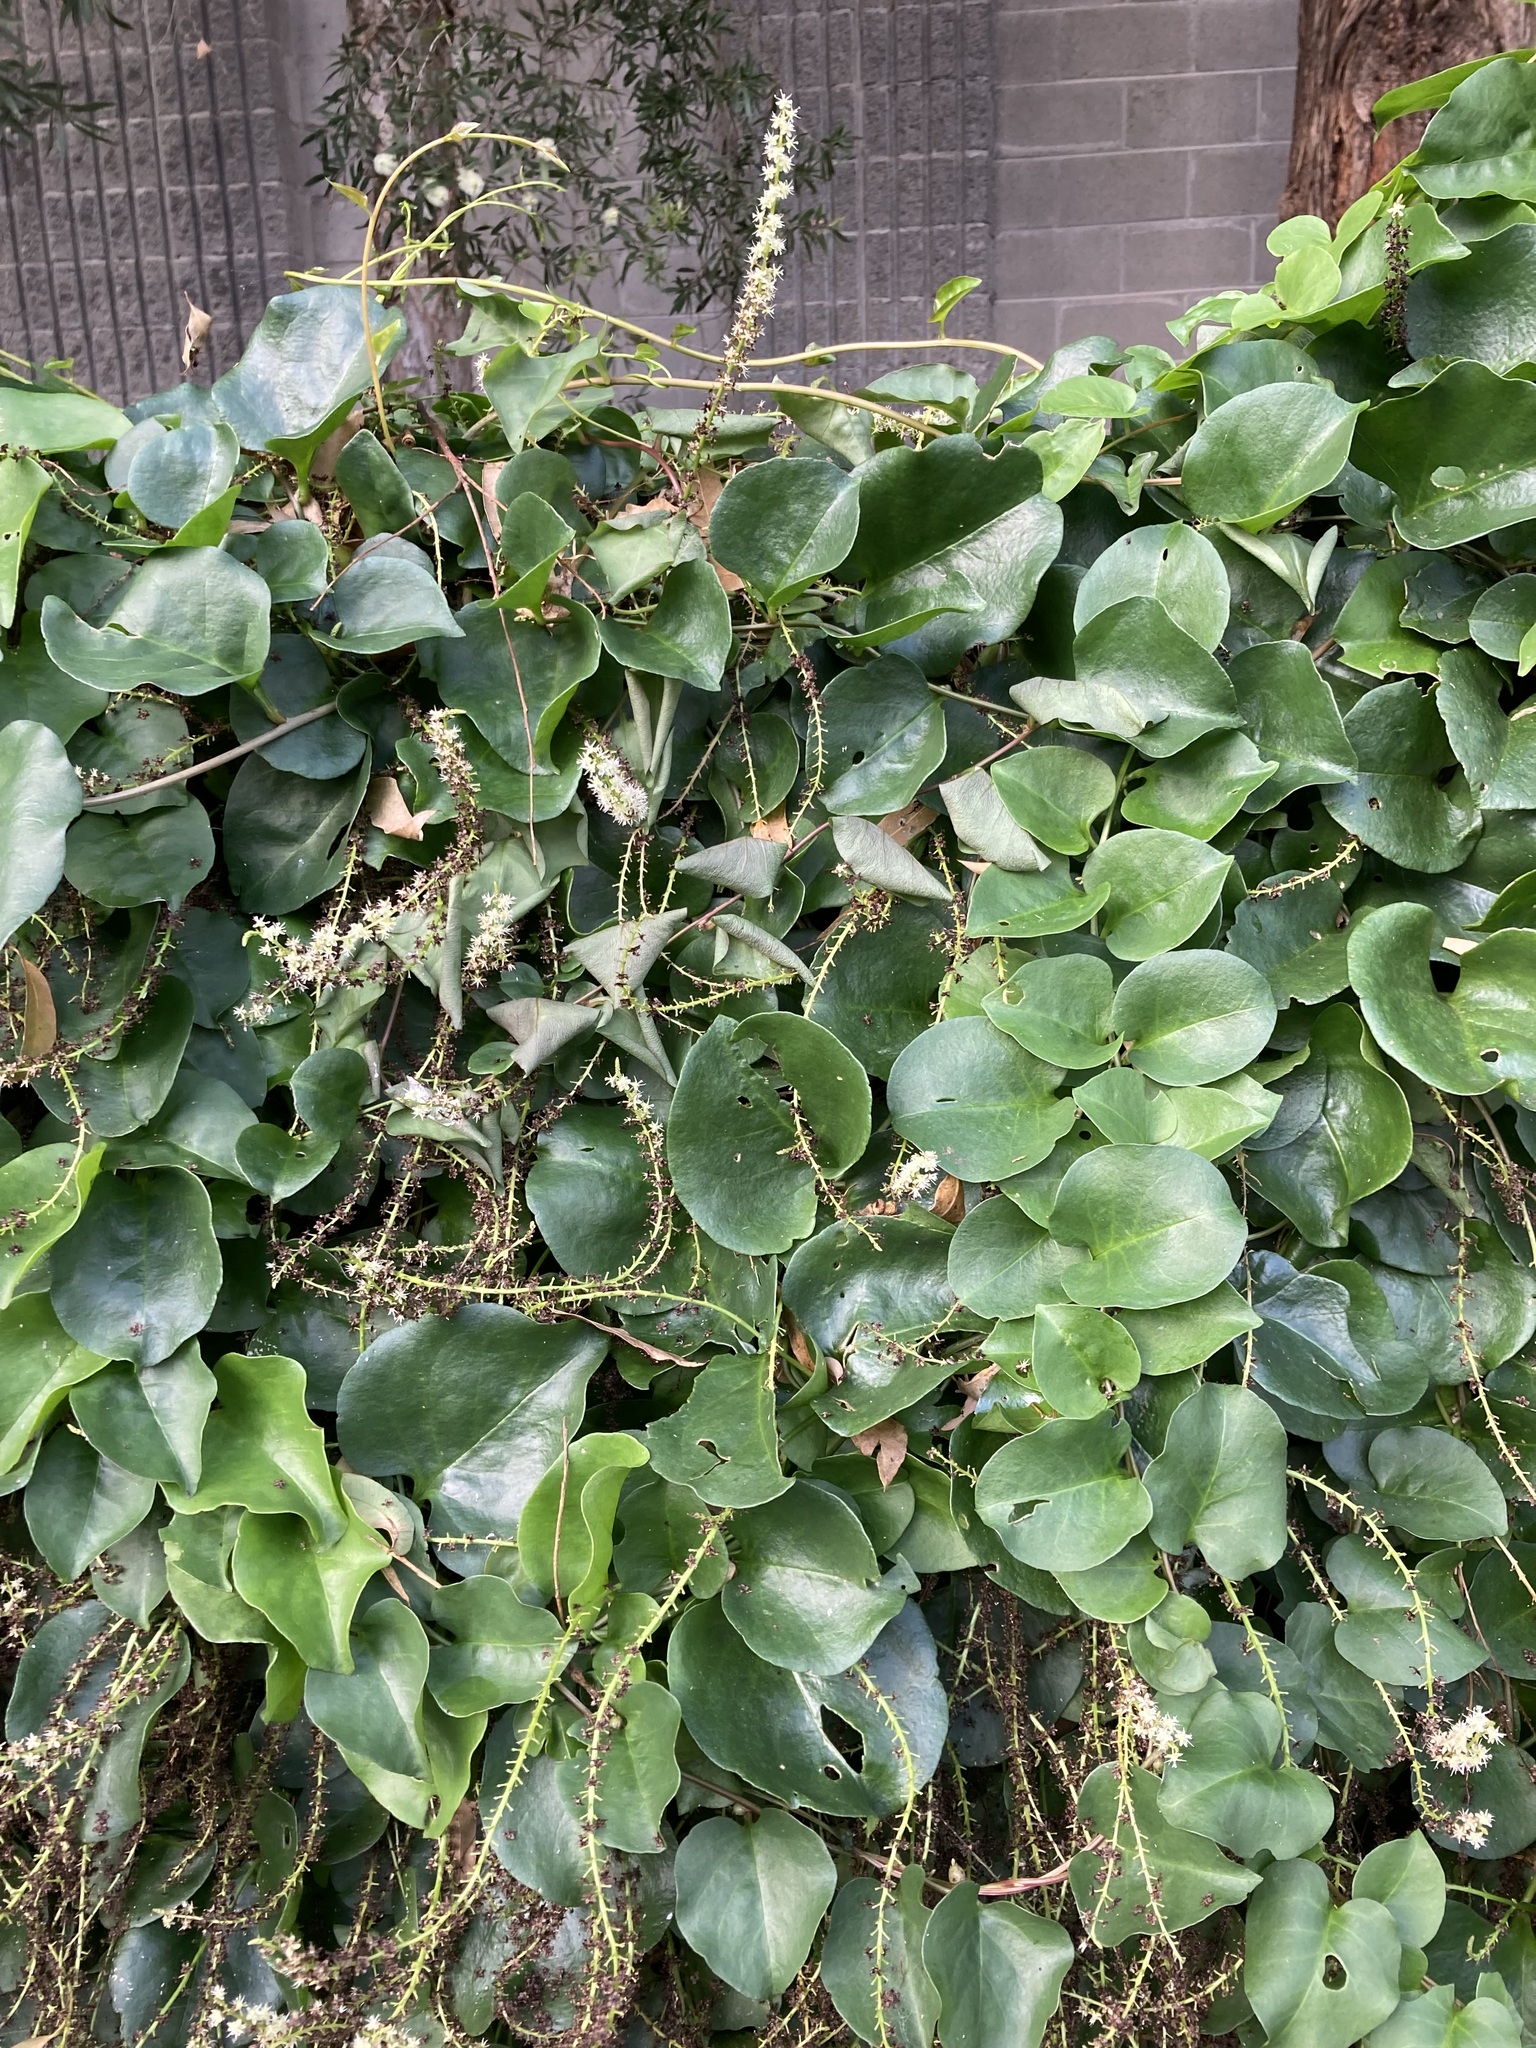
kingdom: Plantae
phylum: Tracheophyta
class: Magnoliopsida
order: Caryophyllales
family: Basellaceae
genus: Anredera
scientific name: Anredera cordifolia
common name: Heartleaf madeiravine
